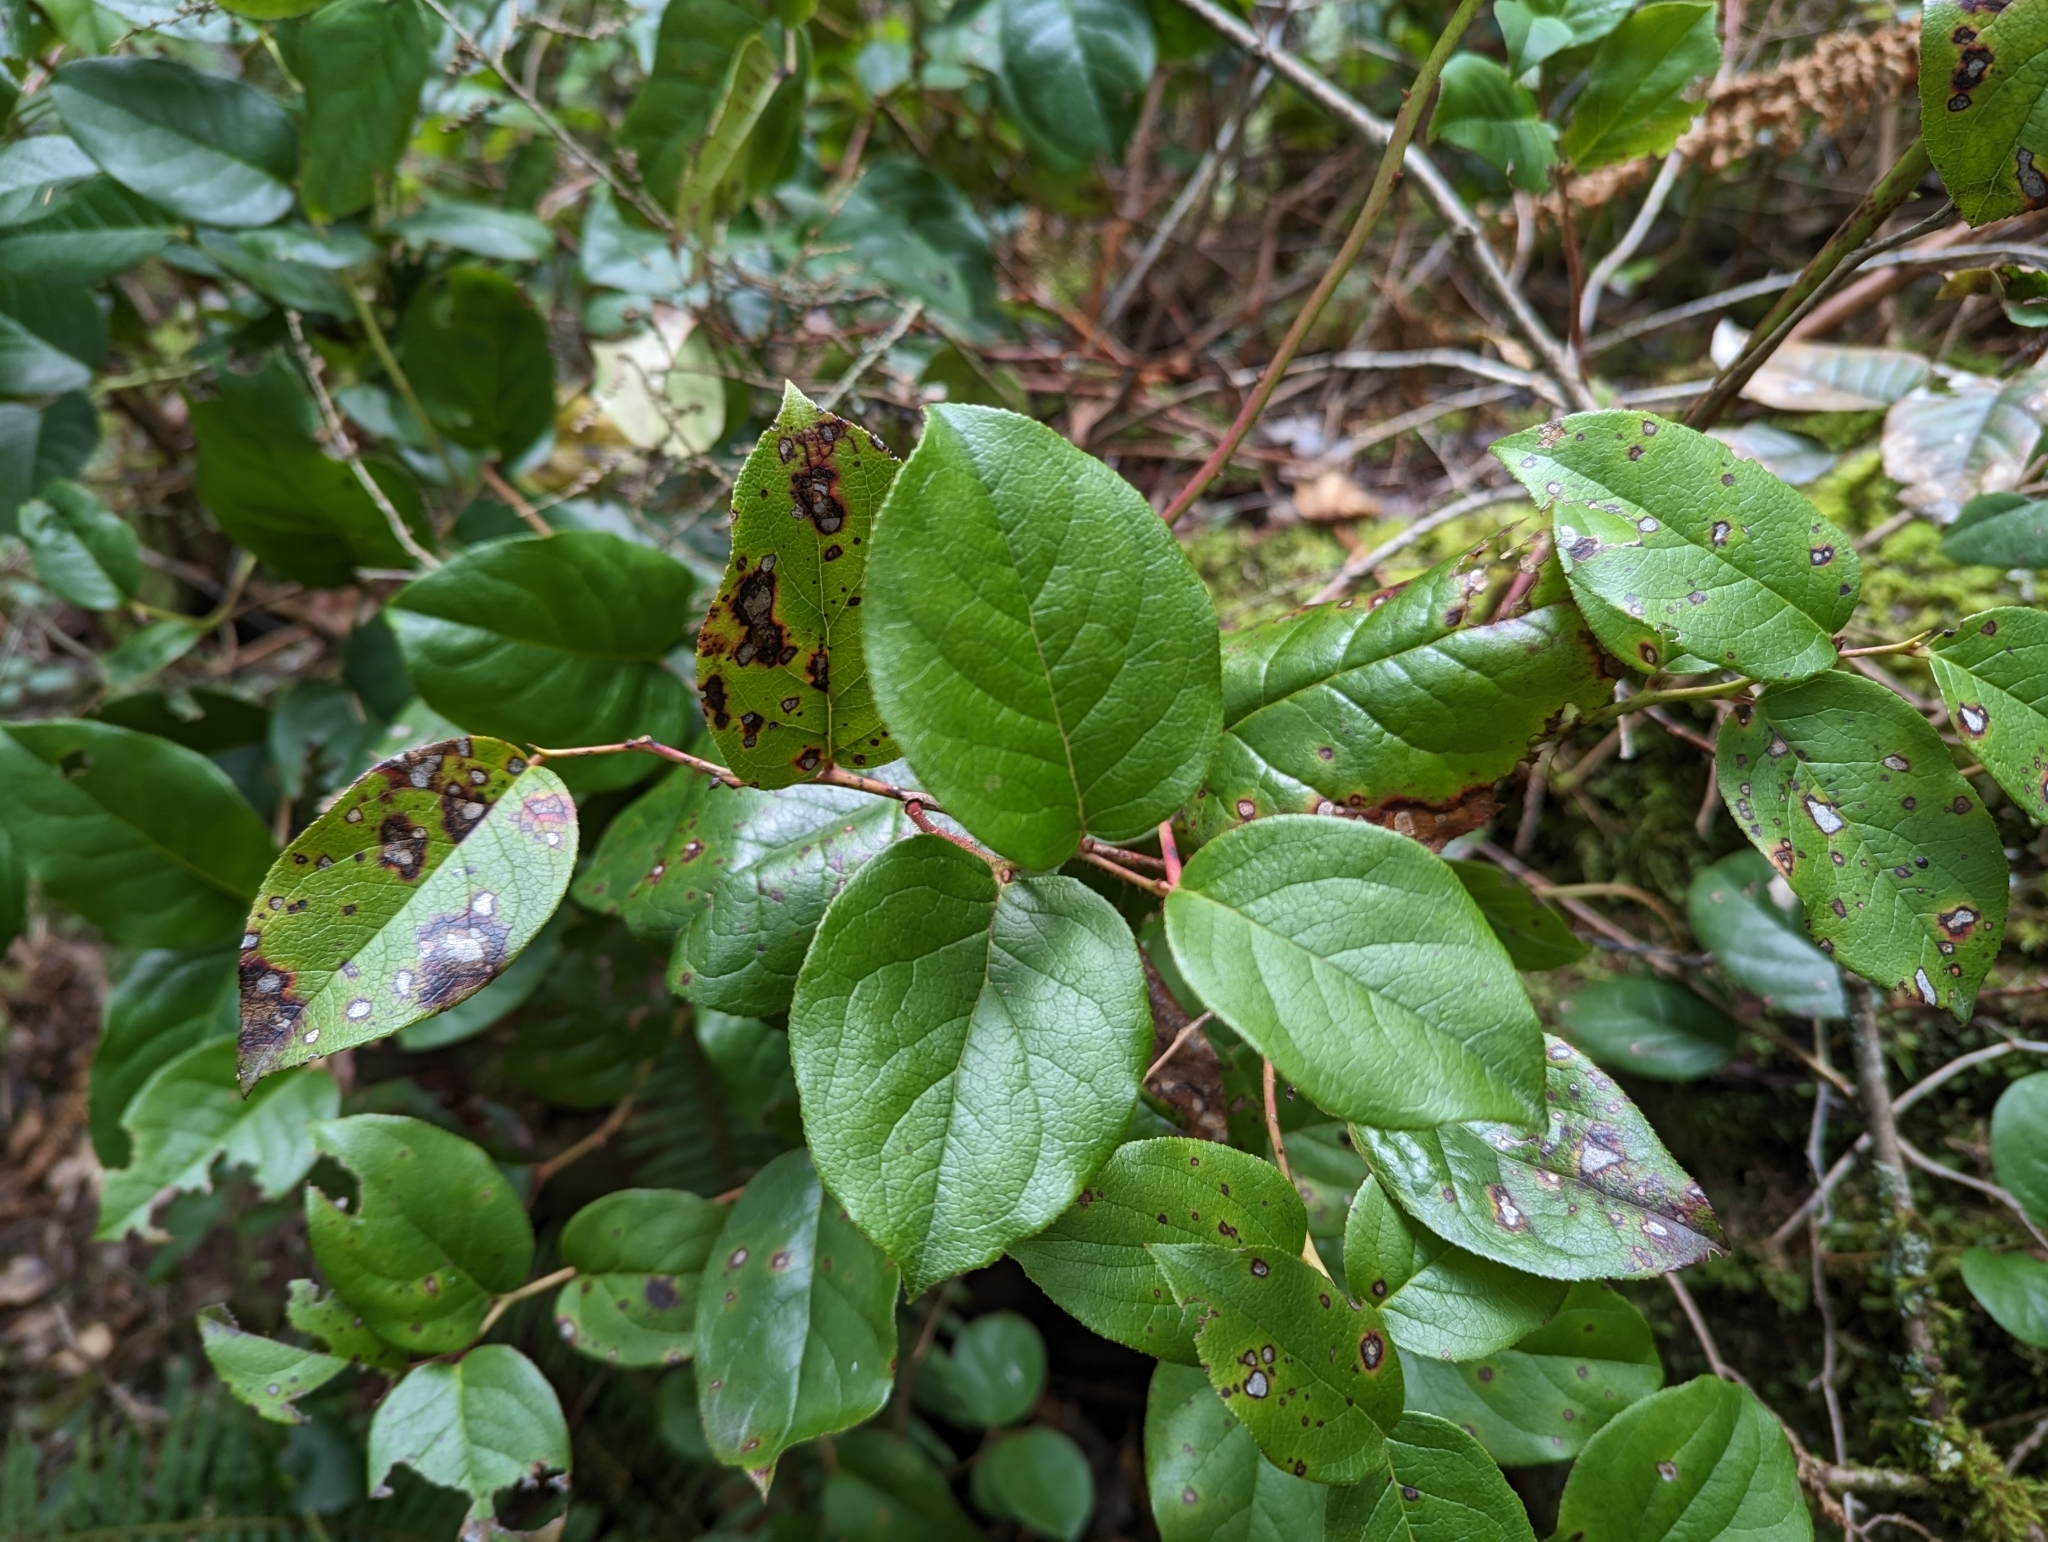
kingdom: Plantae
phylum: Tracheophyta
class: Magnoliopsida
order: Ericales
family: Ericaceae
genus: Gaultheria
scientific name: Gaultheria shallon
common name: Shallon
